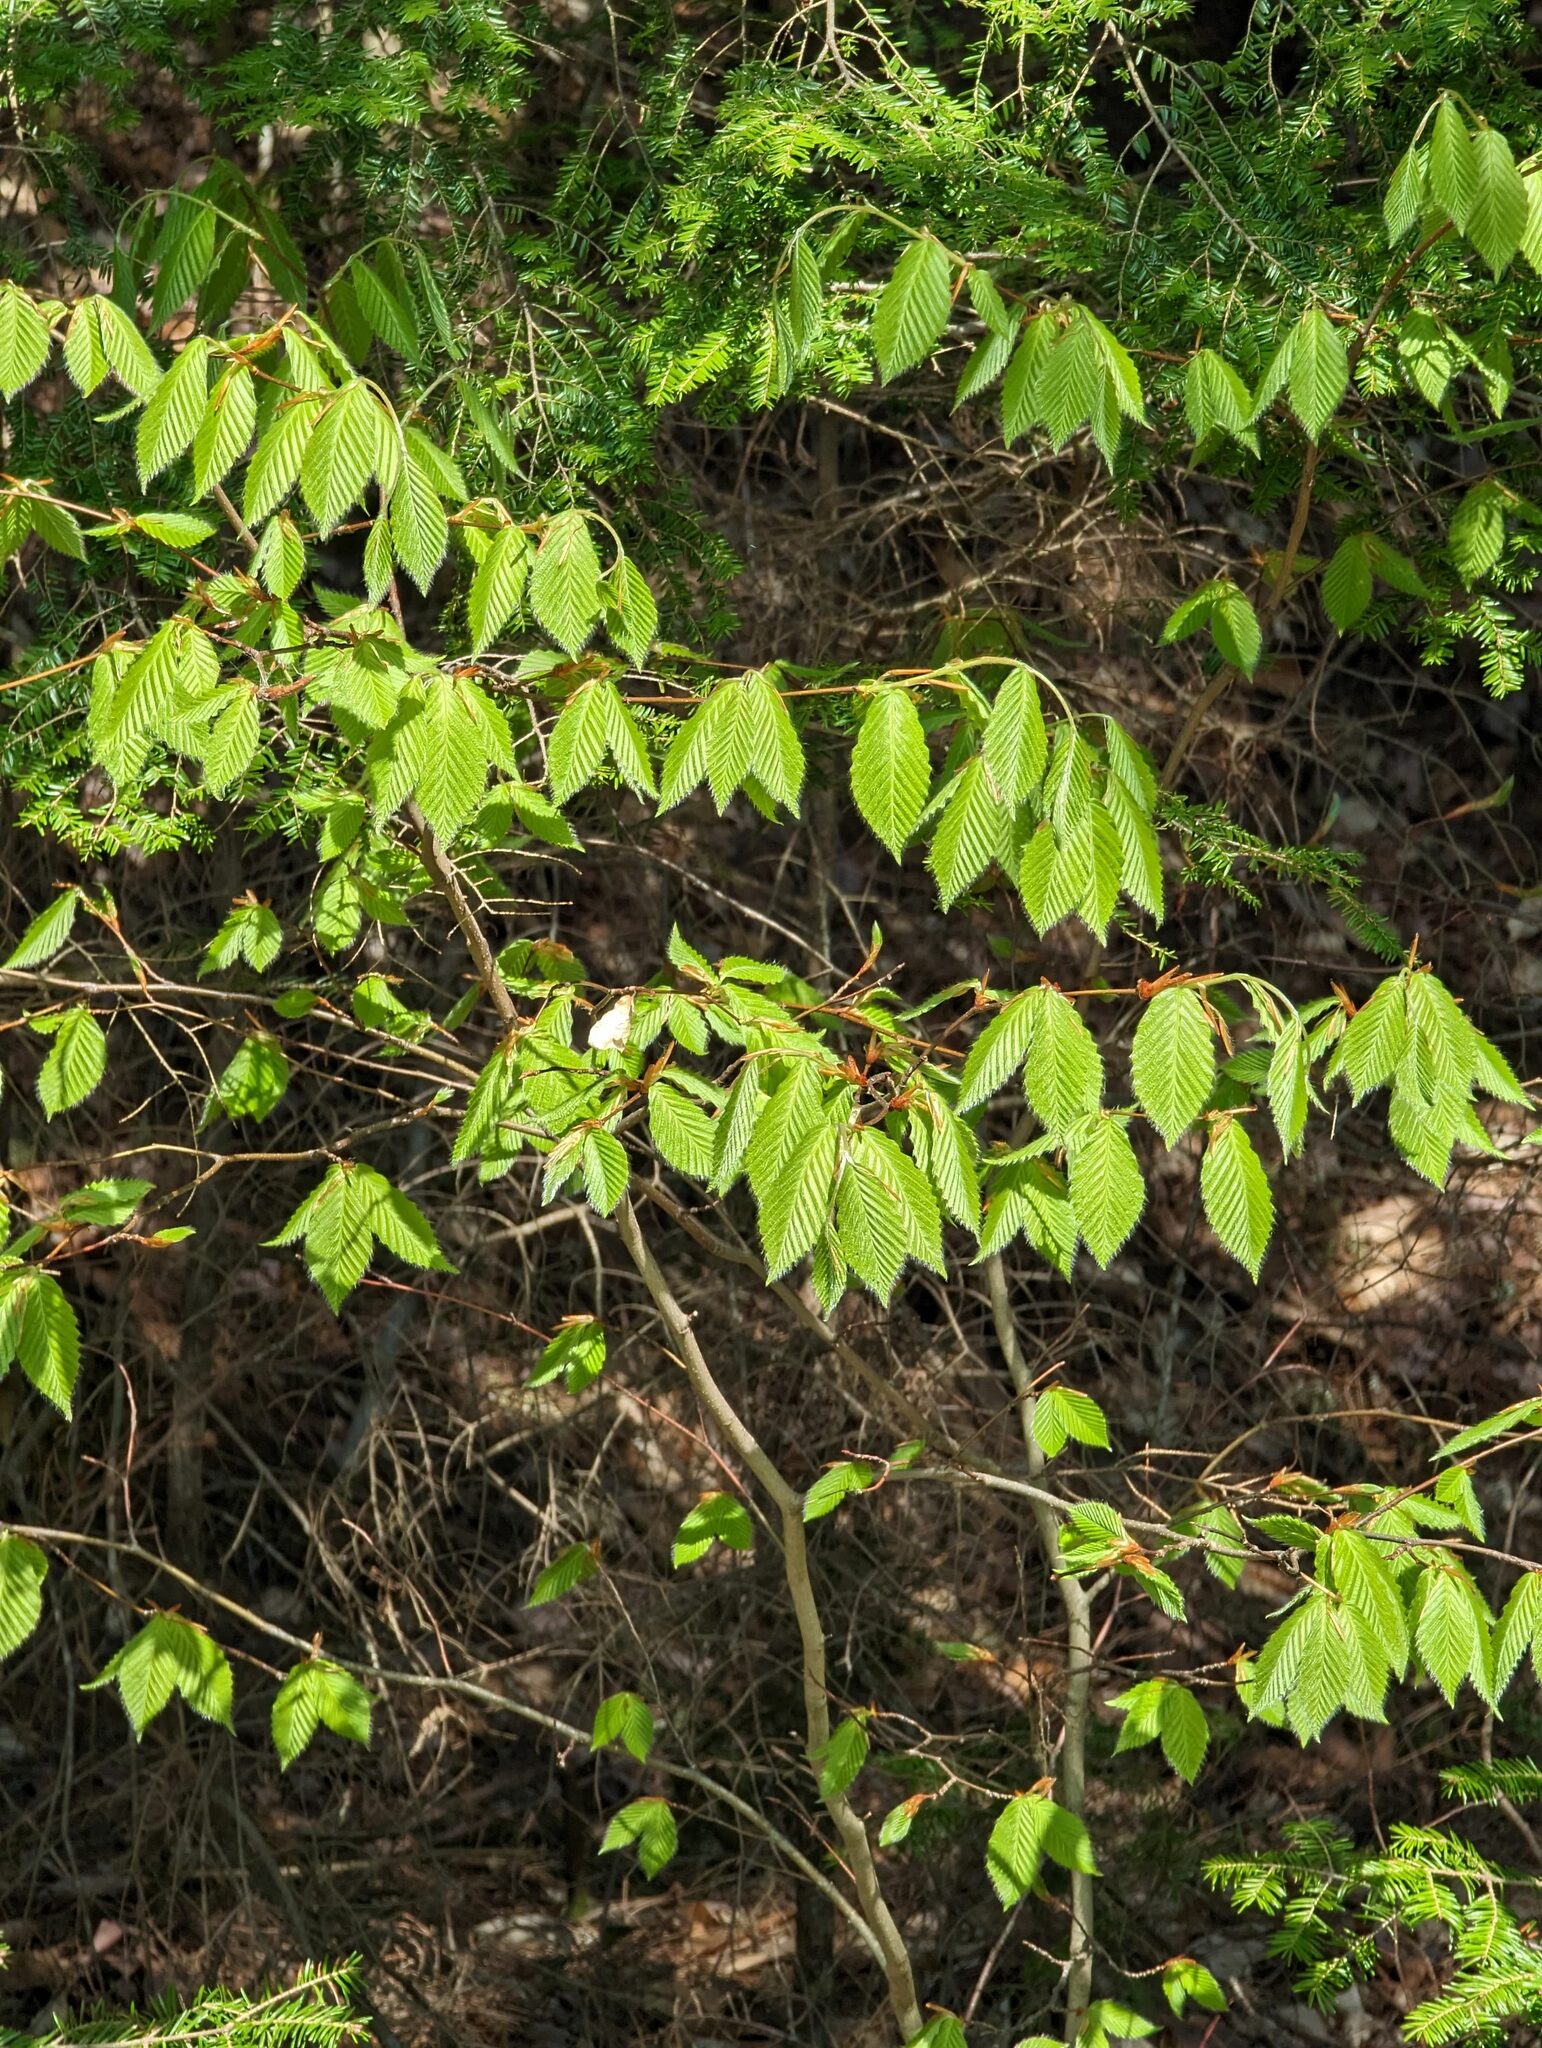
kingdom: Plantae
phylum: Tracheophyta
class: Magnoliopsida
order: Fagales
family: Fagaceae
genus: Fagus
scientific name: Fagus grandifolia
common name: American beech
